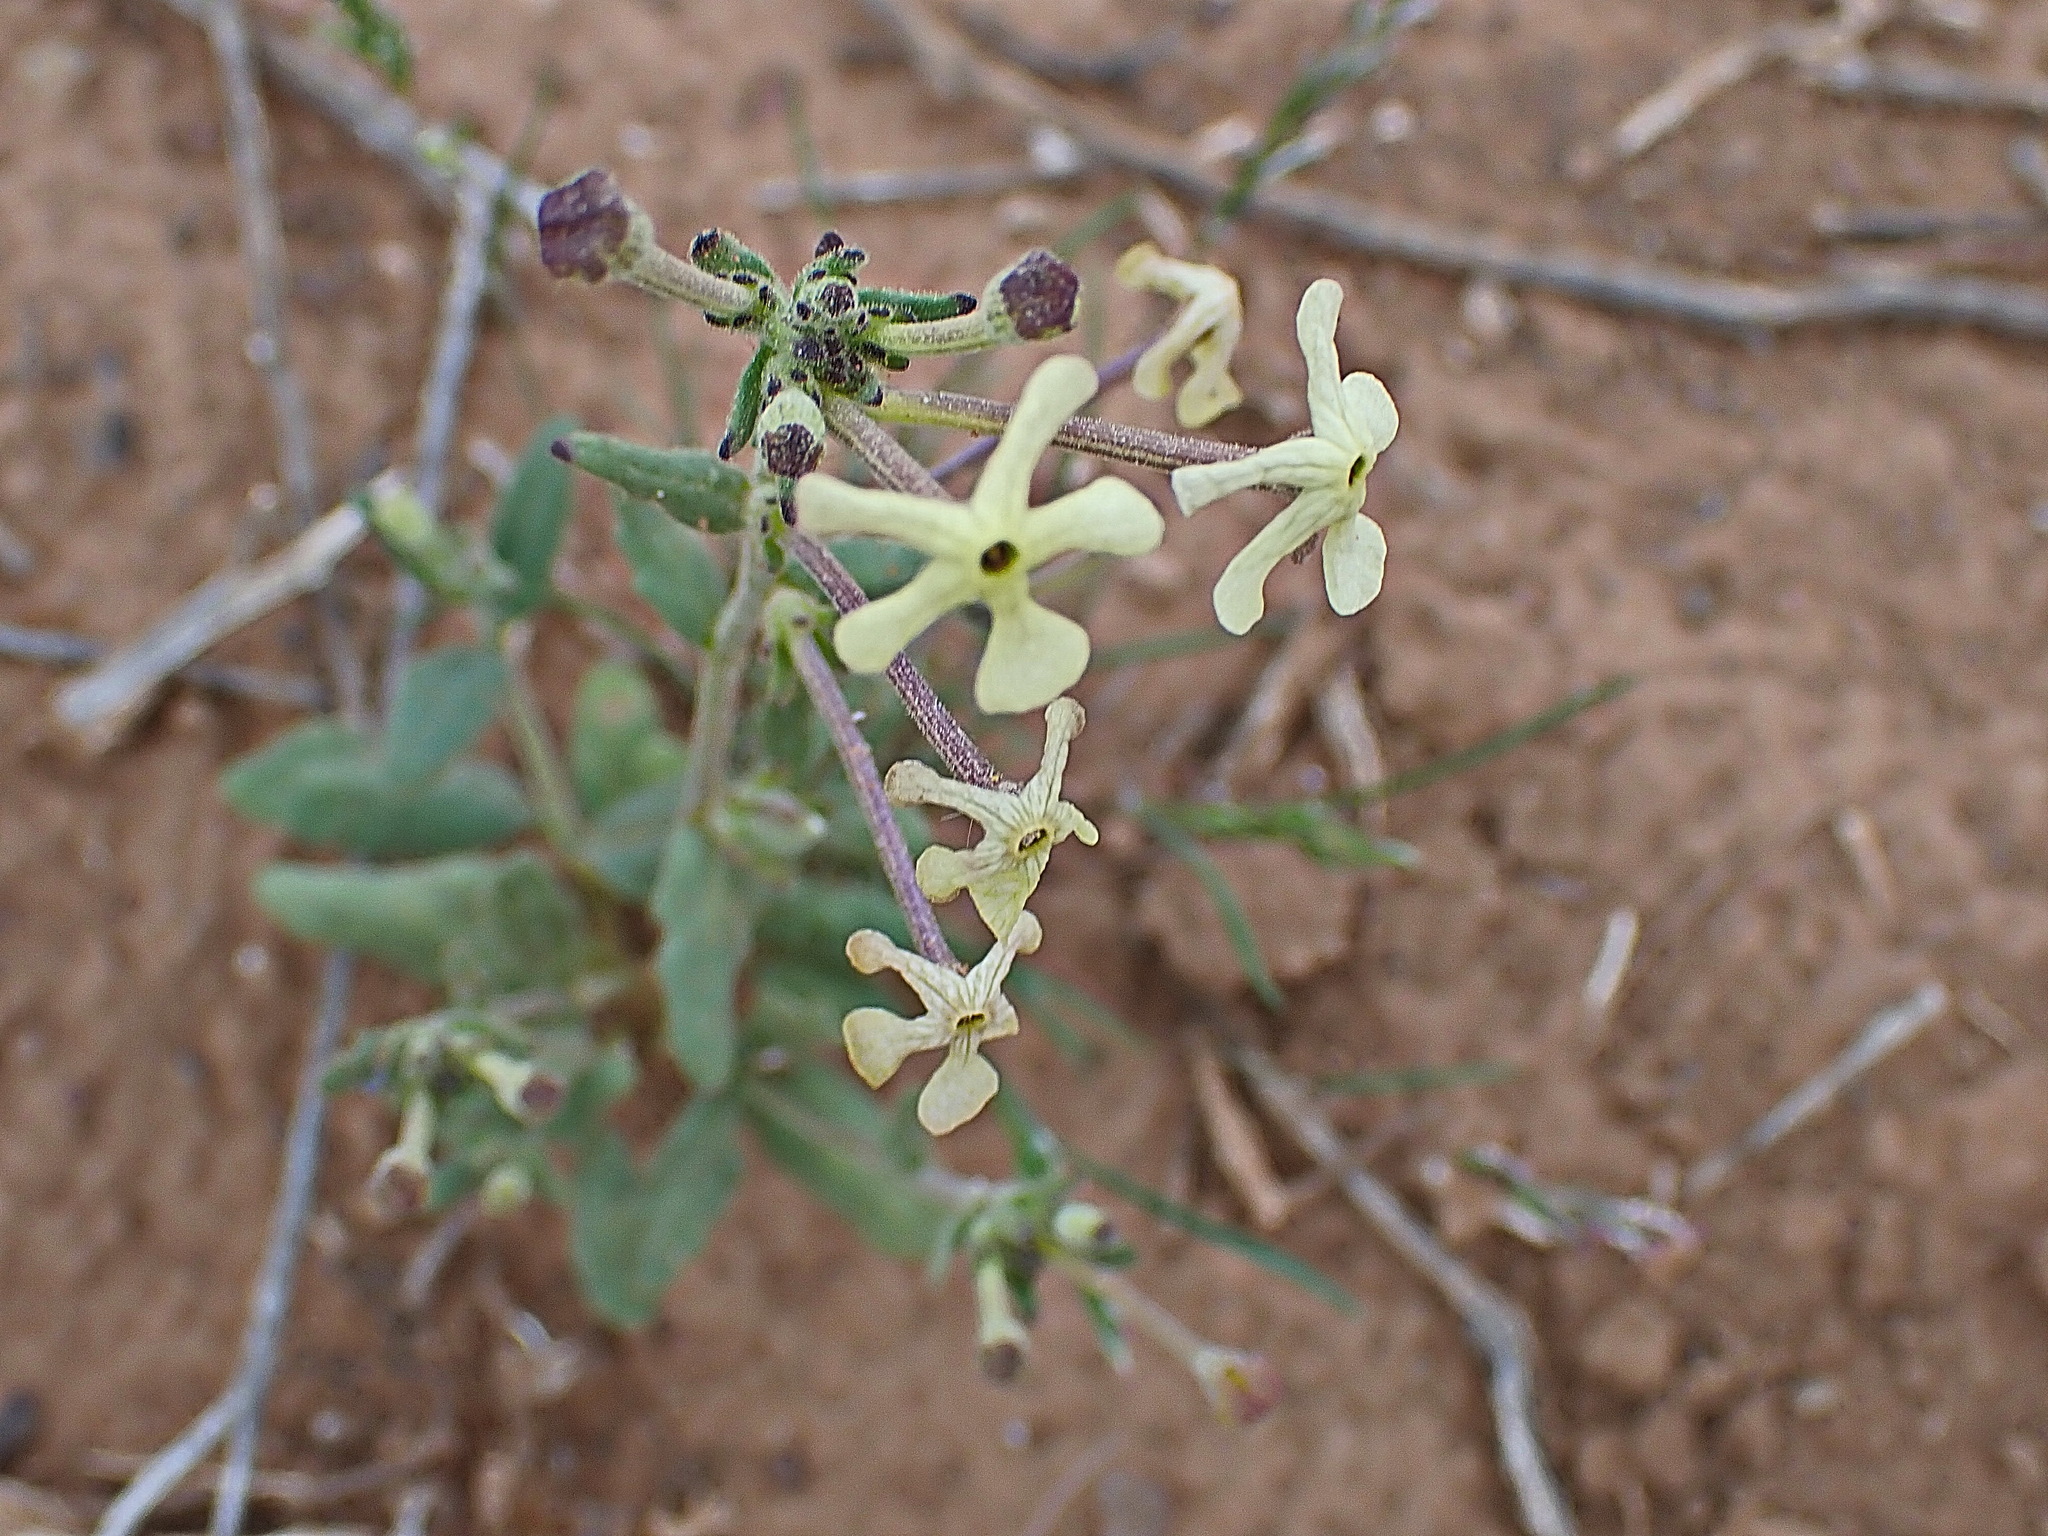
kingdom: Plantae
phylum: Tracheophyta
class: Magnoliopsida
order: Lamiales
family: Scrophulariaceae
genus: Lyperia
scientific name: Lyperia tristis
